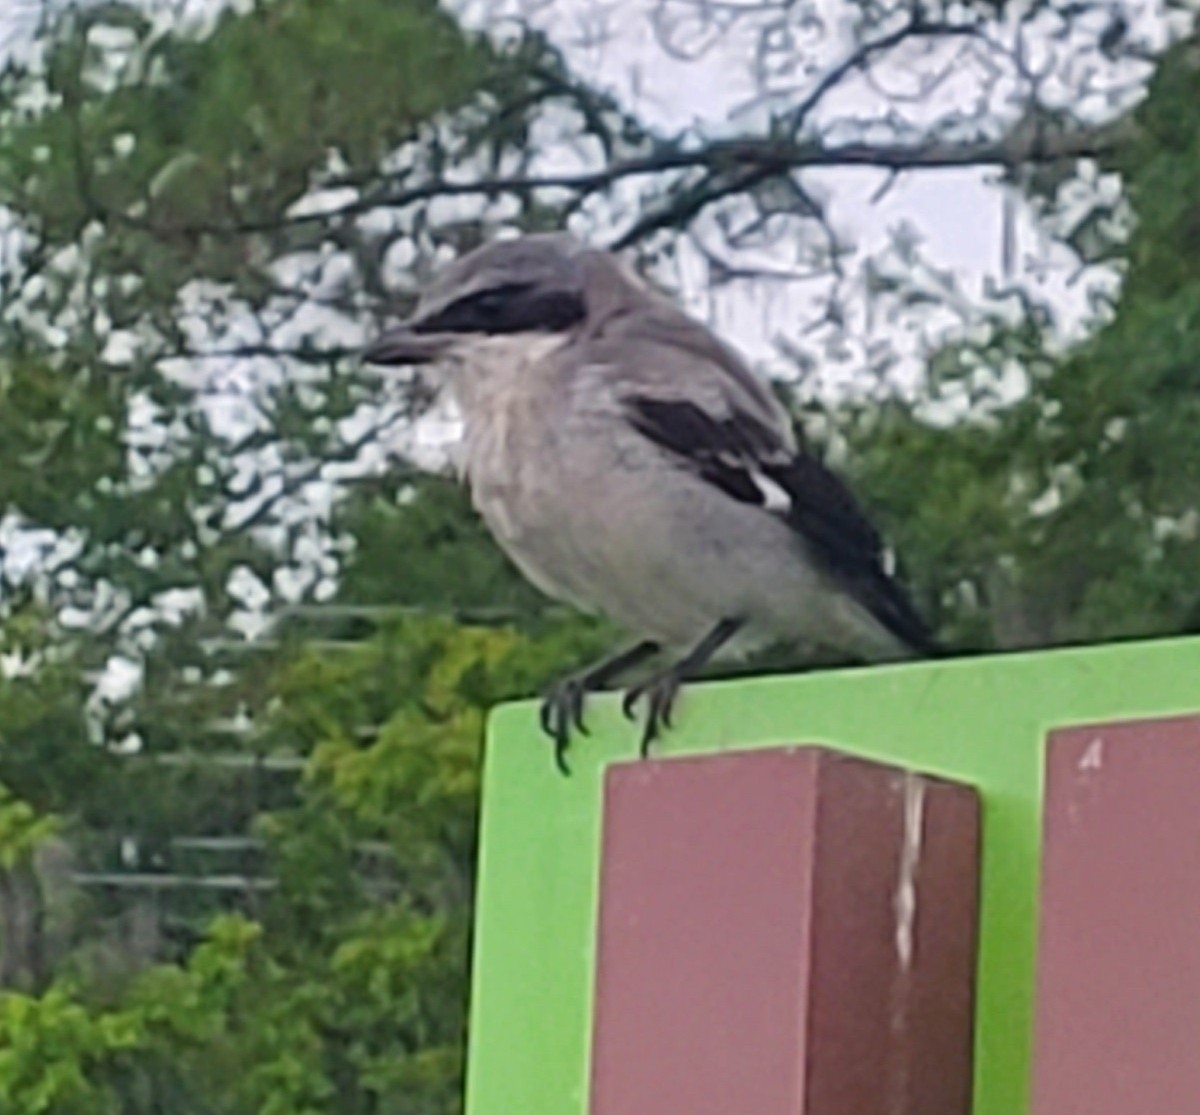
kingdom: Animalia
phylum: Chordata
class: Aves
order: Passeriformes
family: Laniidae
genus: Lanius
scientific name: Lanius ludovicianus
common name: Loggerhead shrike
